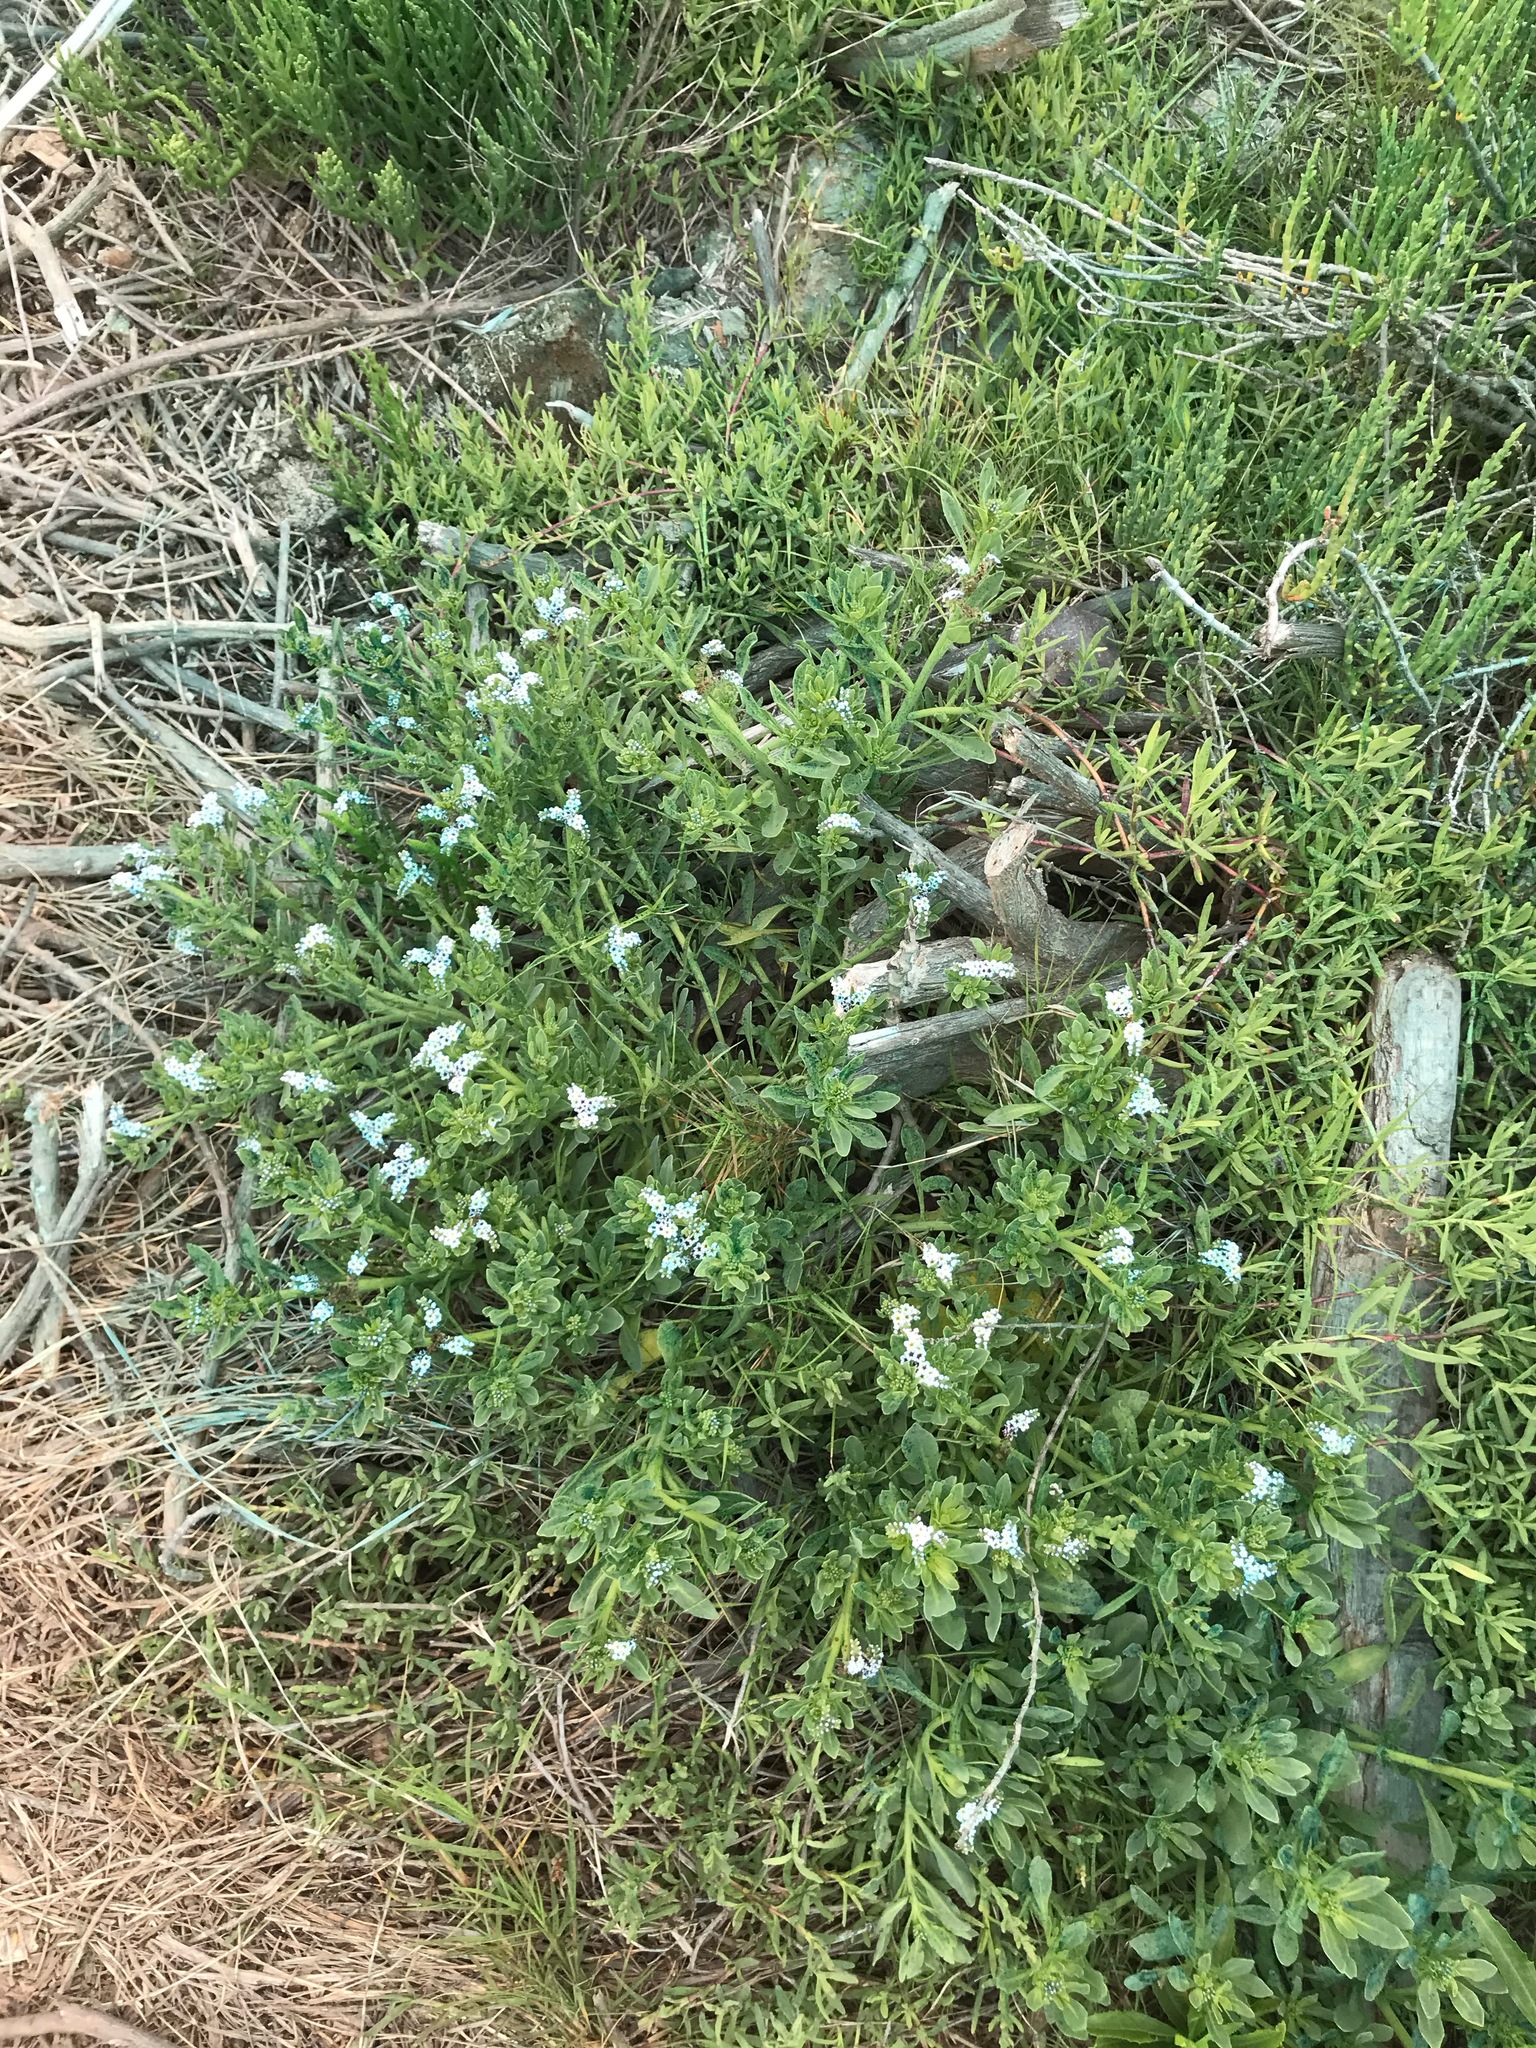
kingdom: Plantae
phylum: Tracheophyta
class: Magnoliopsida
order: Boraginales
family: Heliotropiaceae
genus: Heliotropium
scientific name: Heliotropium curassavicum
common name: Seaside heliotrope
